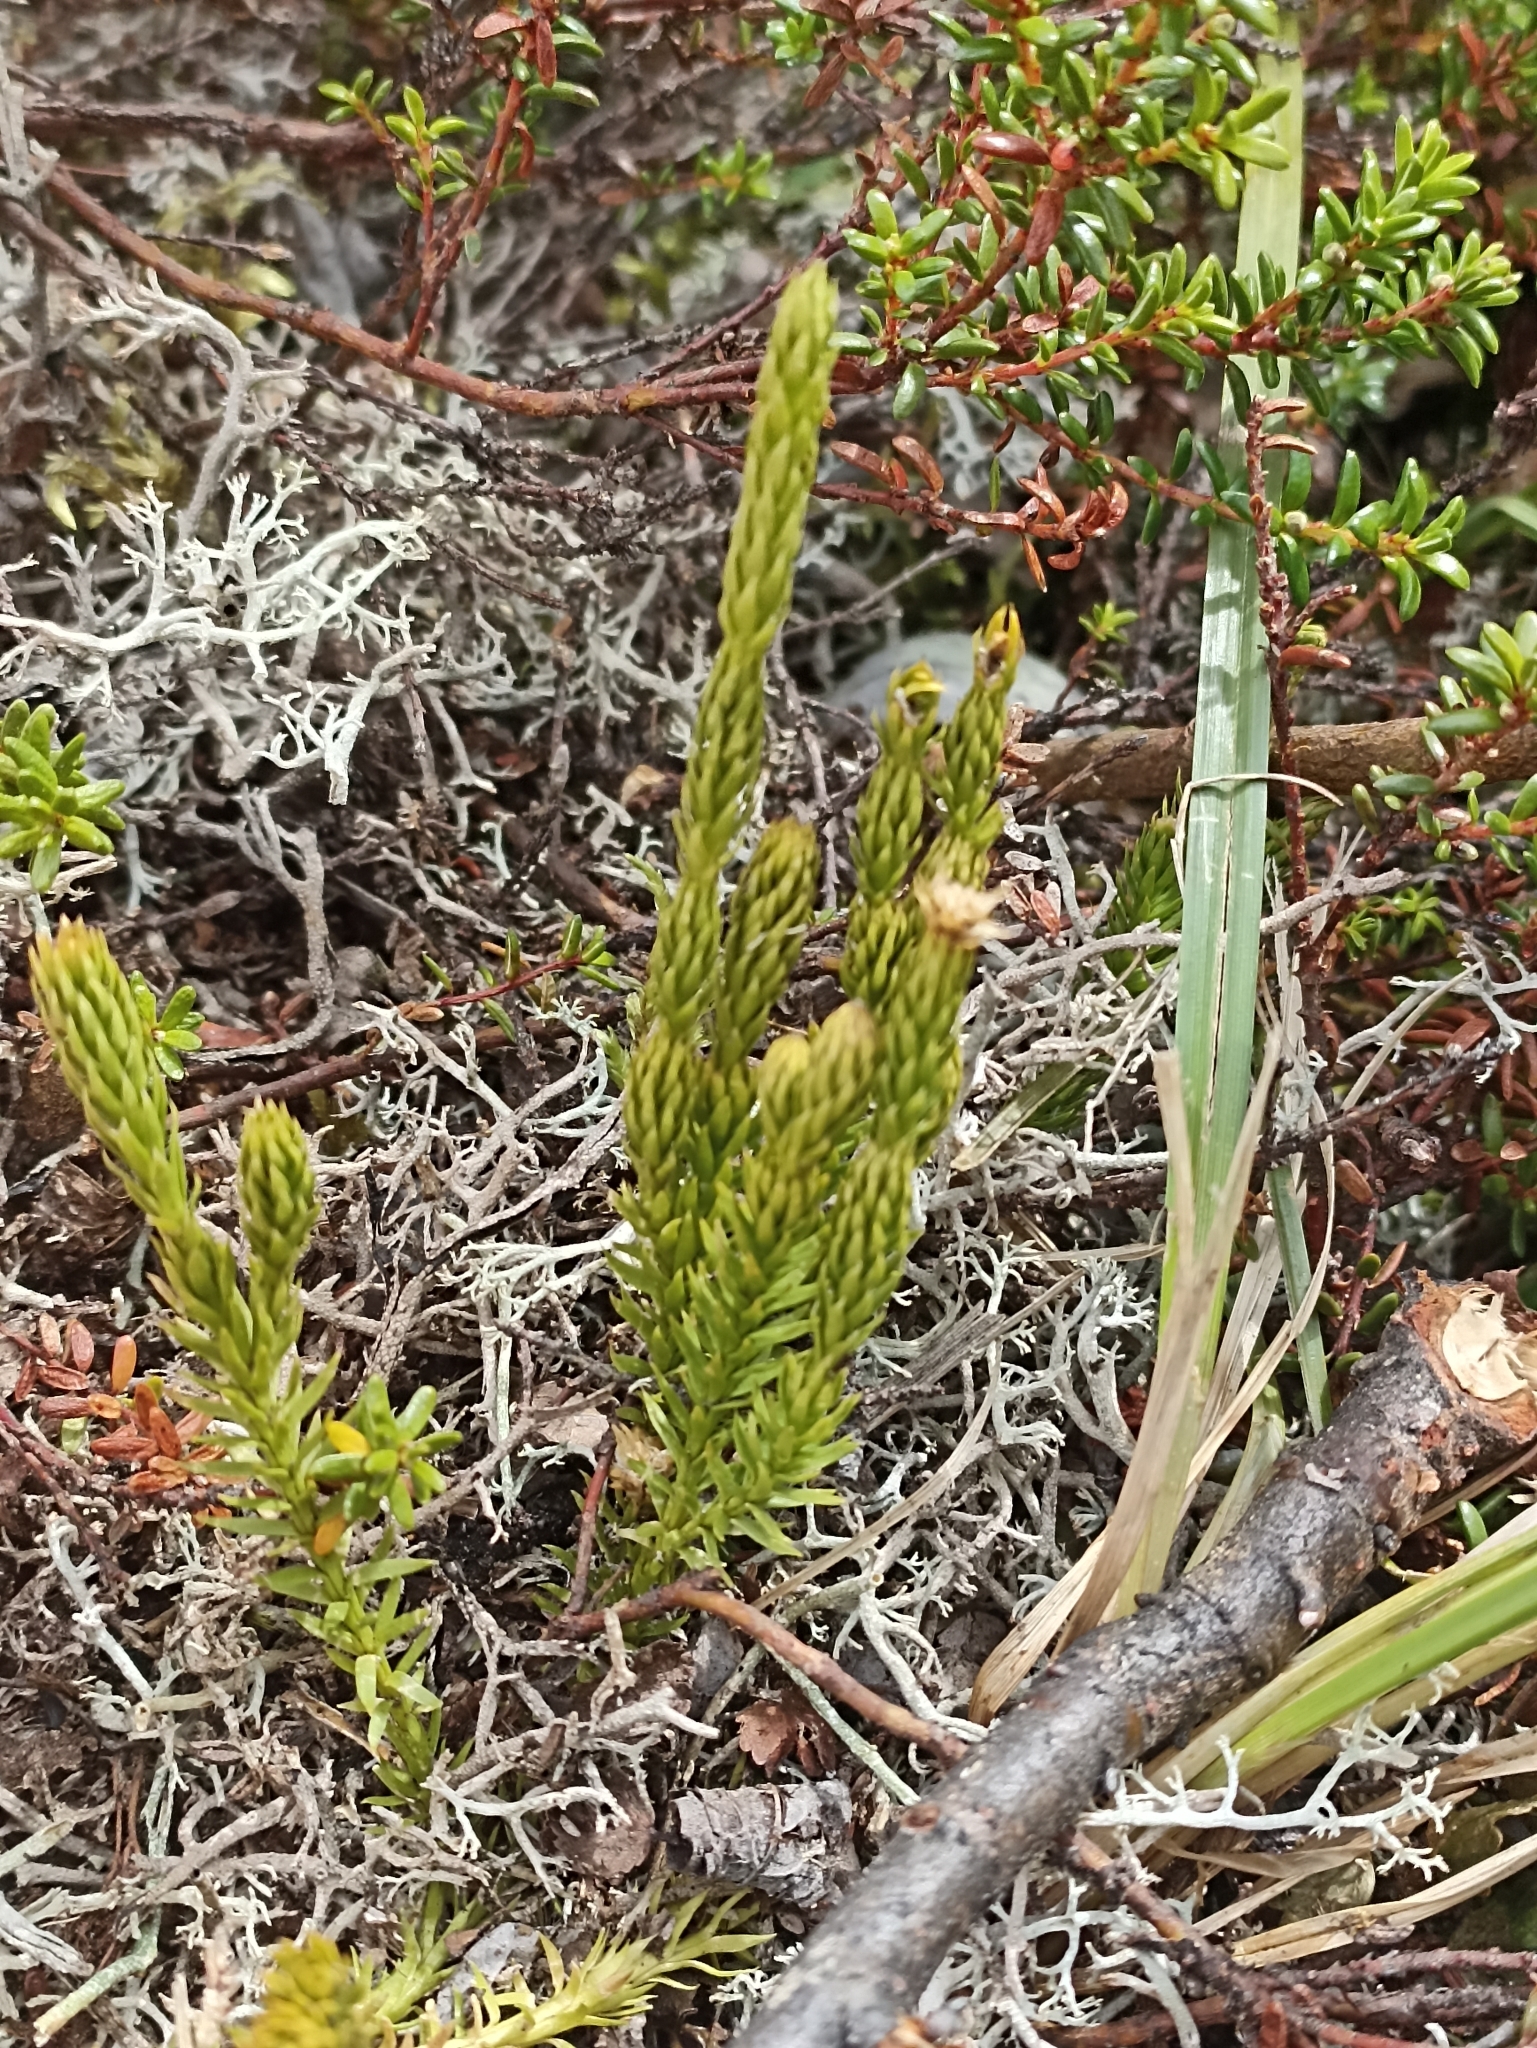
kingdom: Plantae
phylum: Tracheophyta
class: Lycopodiopsida
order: Lycopodiales
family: Lycopodiaceae
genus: Spinulum
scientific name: Spinulum annotinum
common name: Interrupted club-moss
